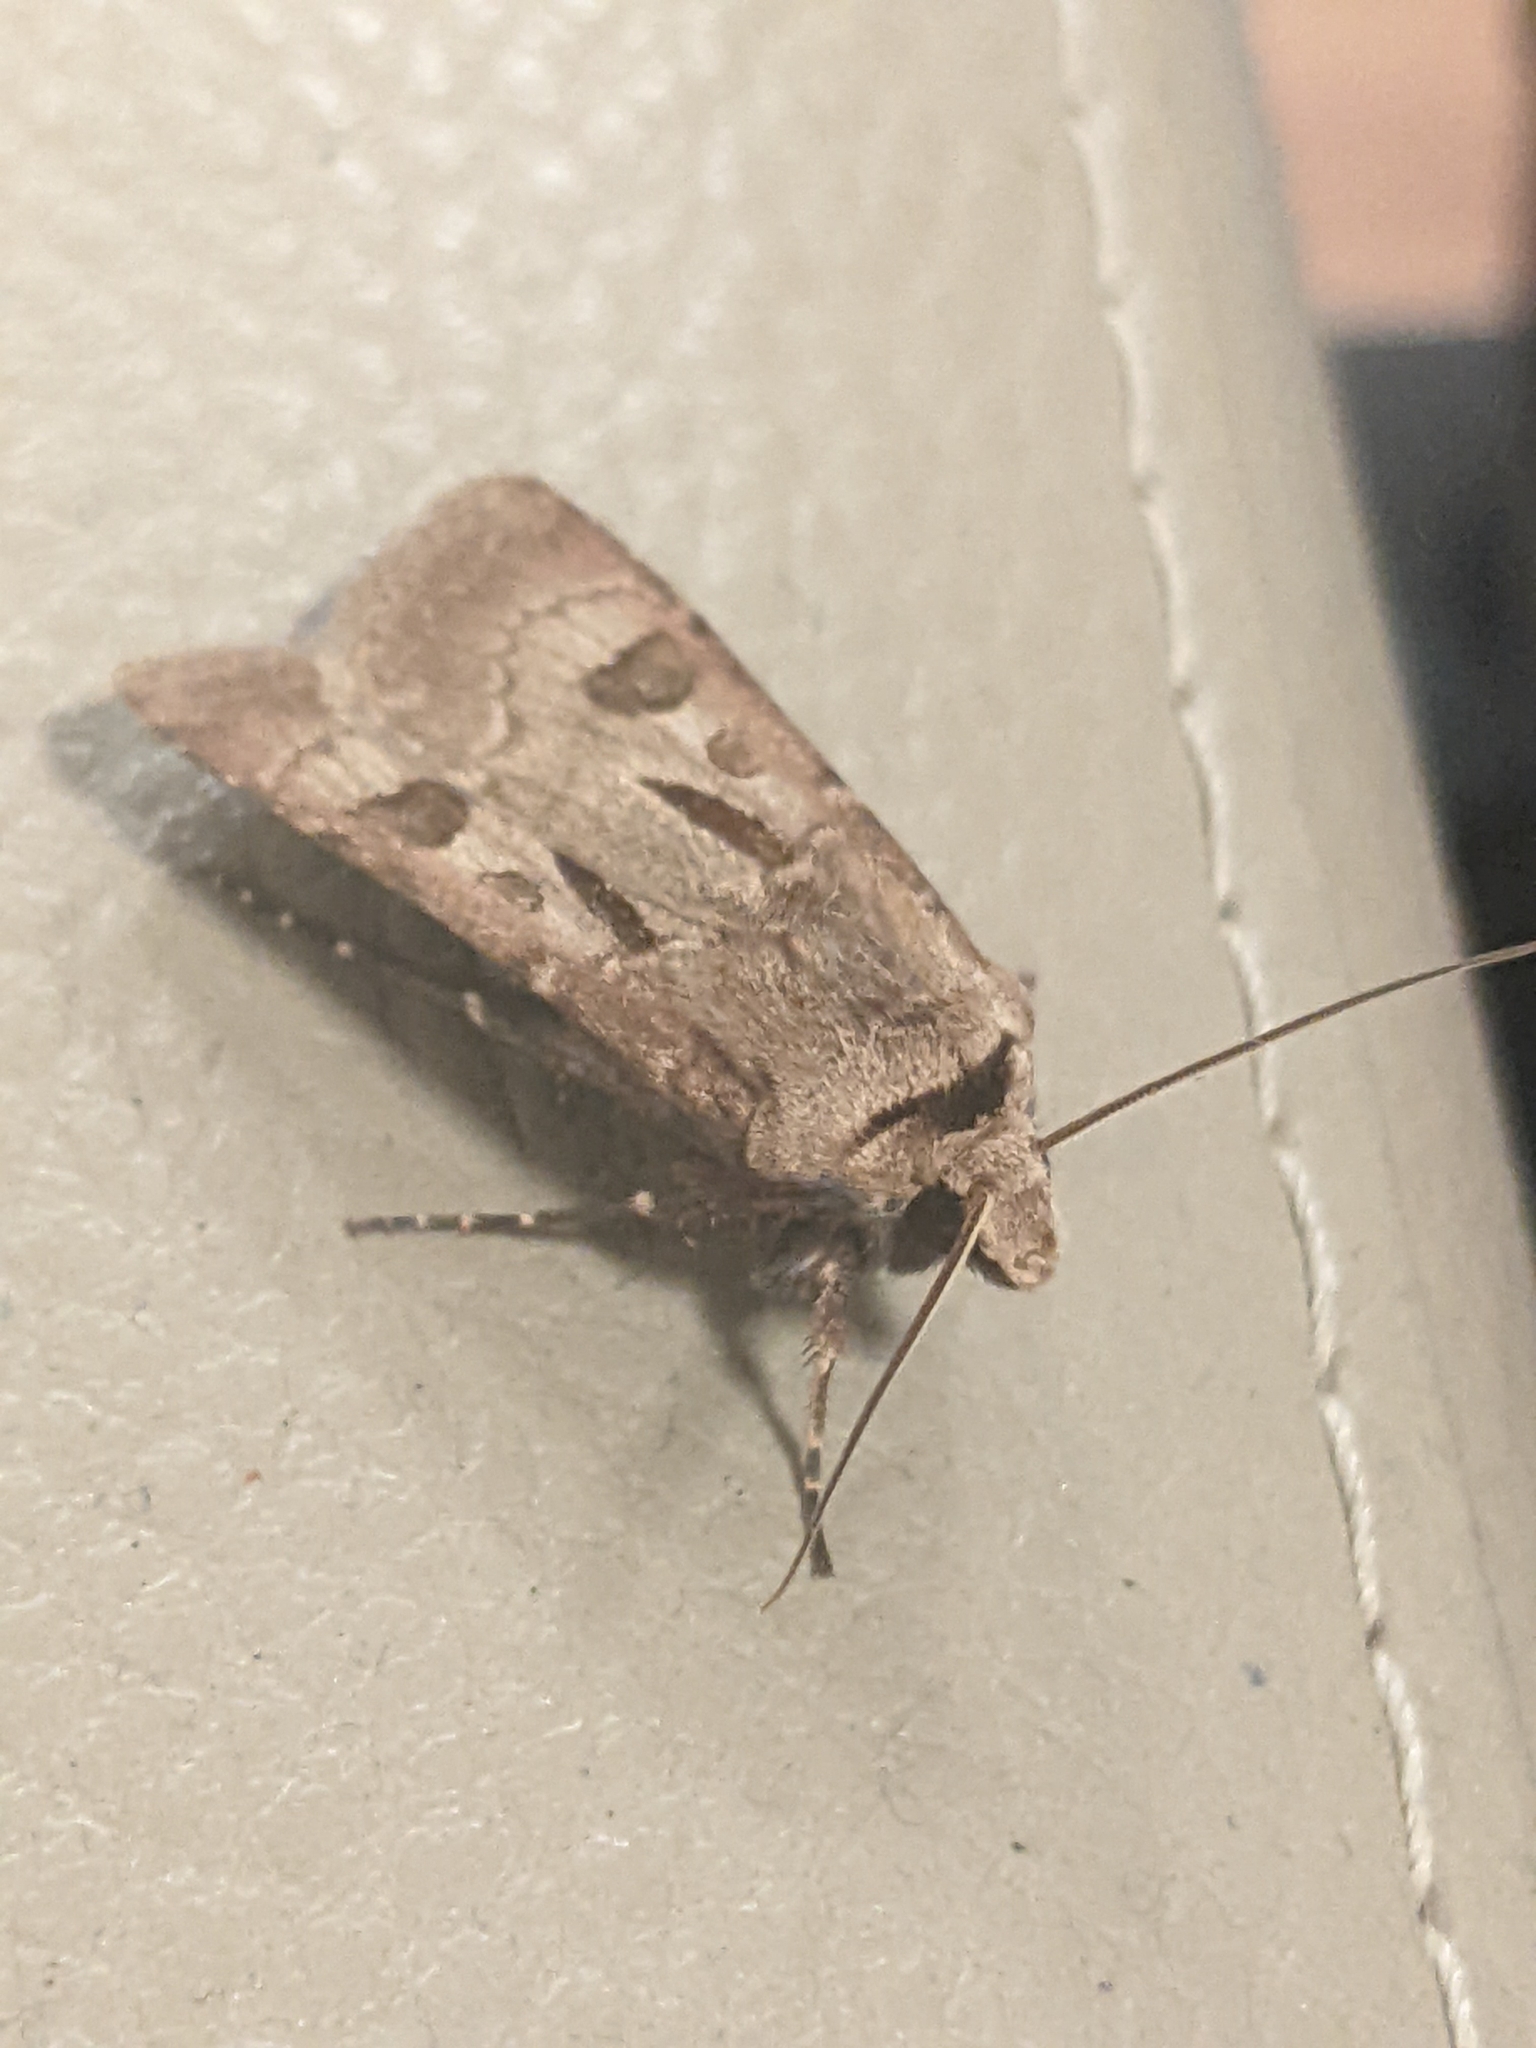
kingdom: Animalia
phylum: Arthropoda
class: Insecta
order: Lepidoptera
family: Noctuidae
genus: Agrotis
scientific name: Agrotis exclamationis
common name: Heart and dart
